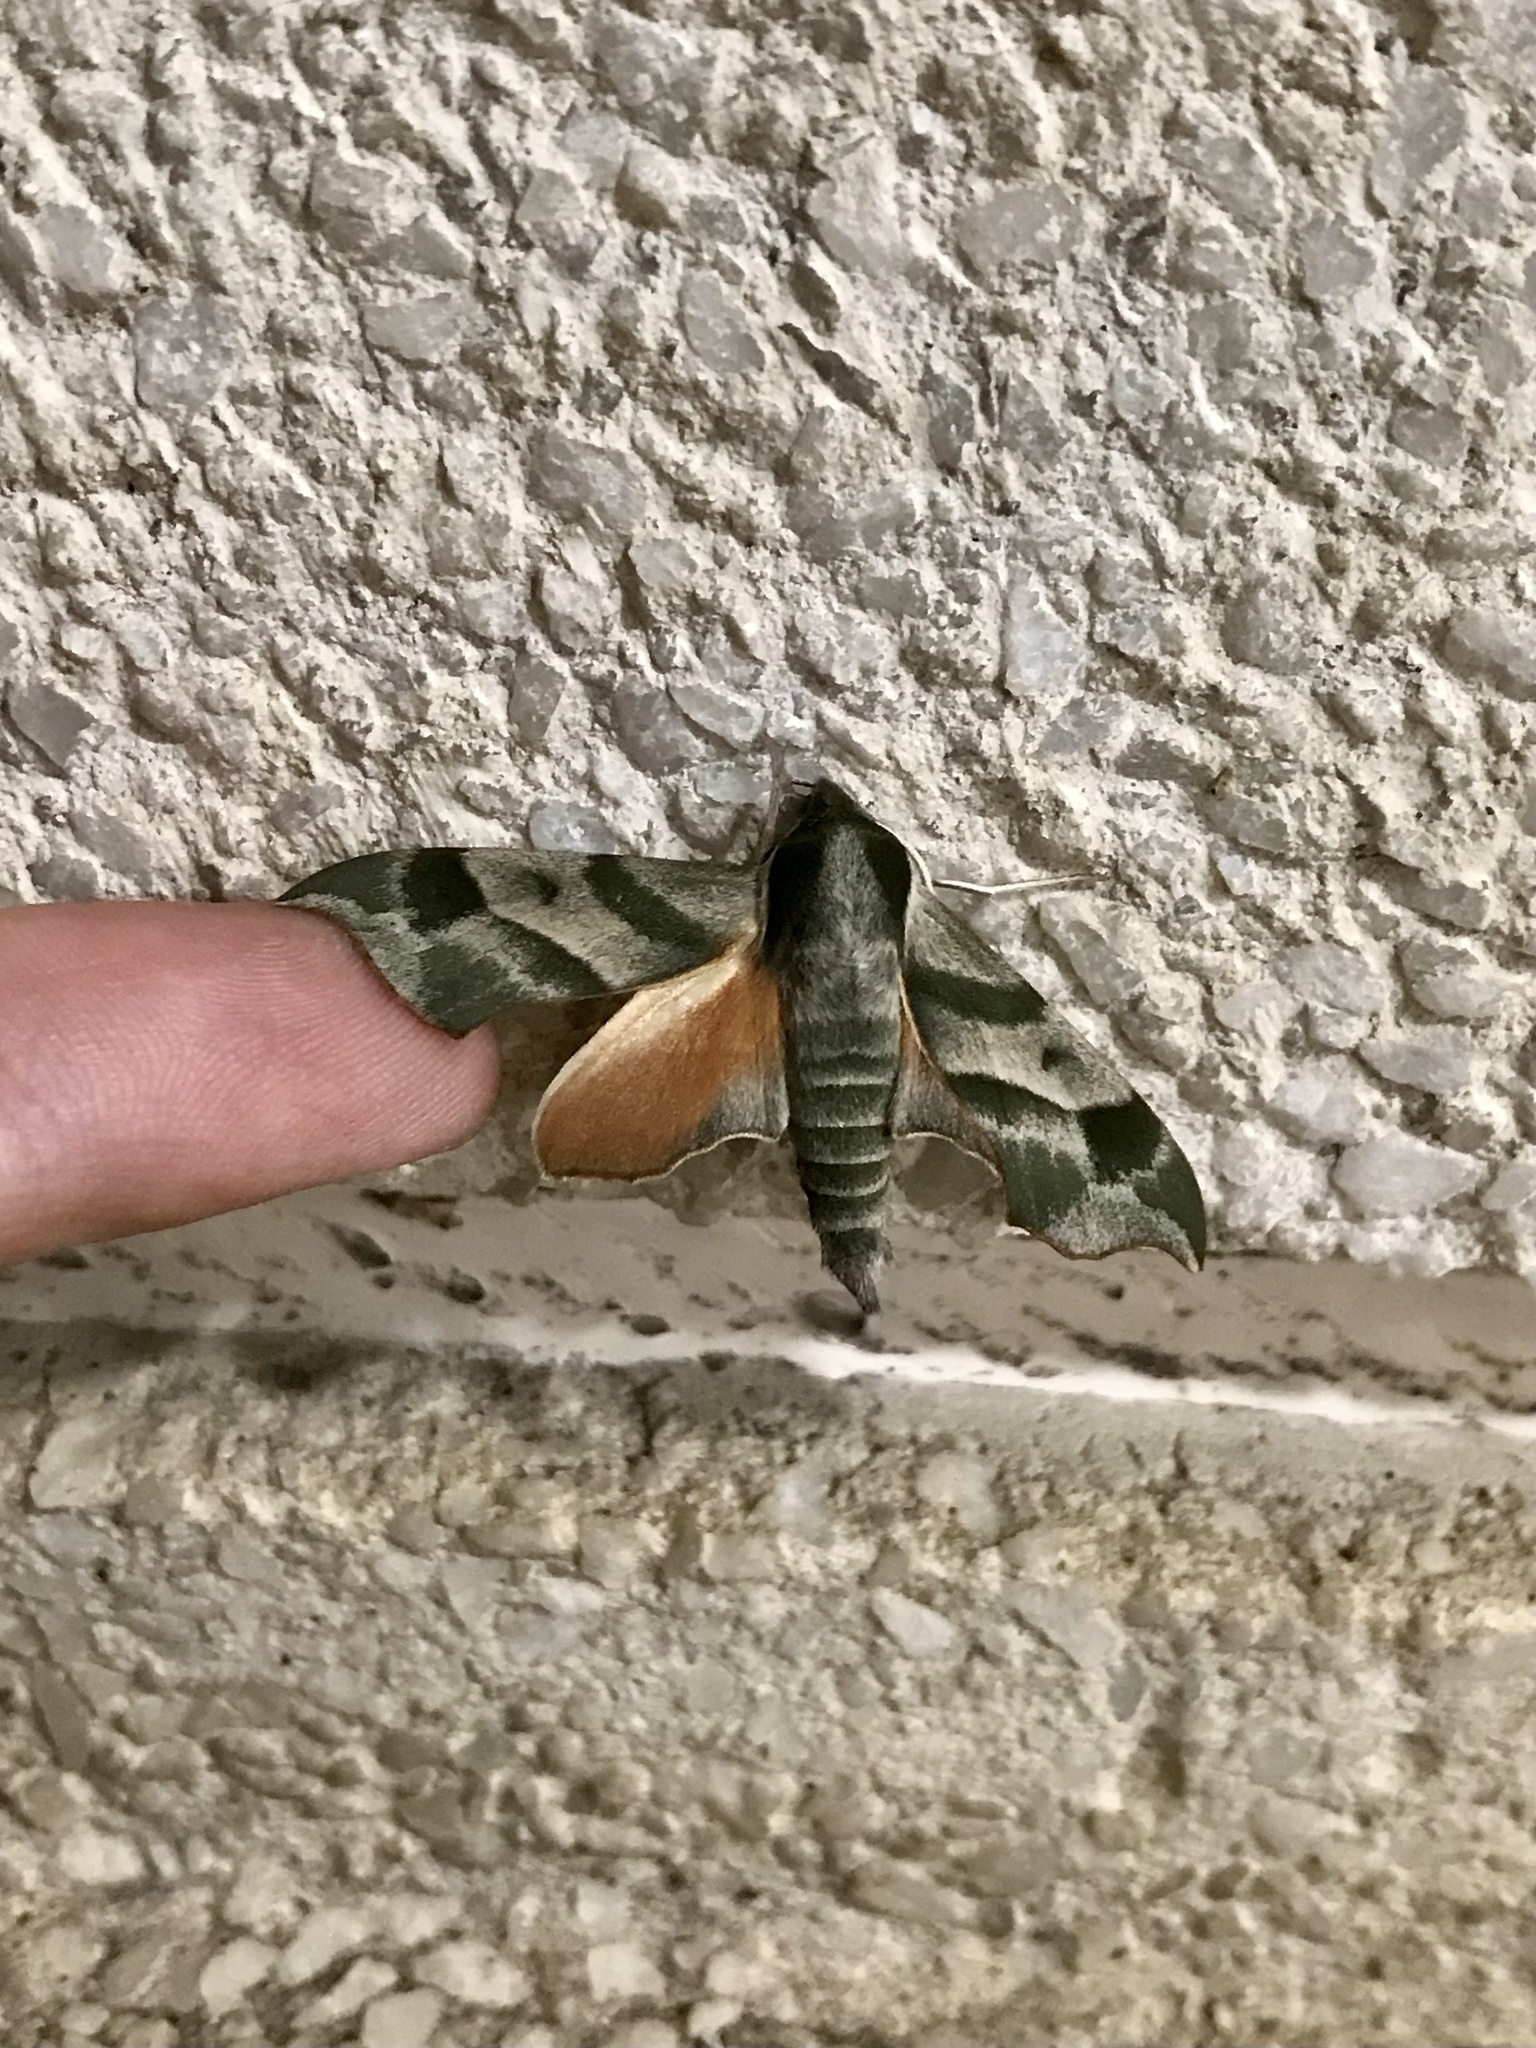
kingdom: Animalia
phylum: Arthropoda
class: Insecta
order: Lepidoptera
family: Sphingidae
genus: Darapsa
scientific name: Darapsa myron
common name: Hog sphinx
